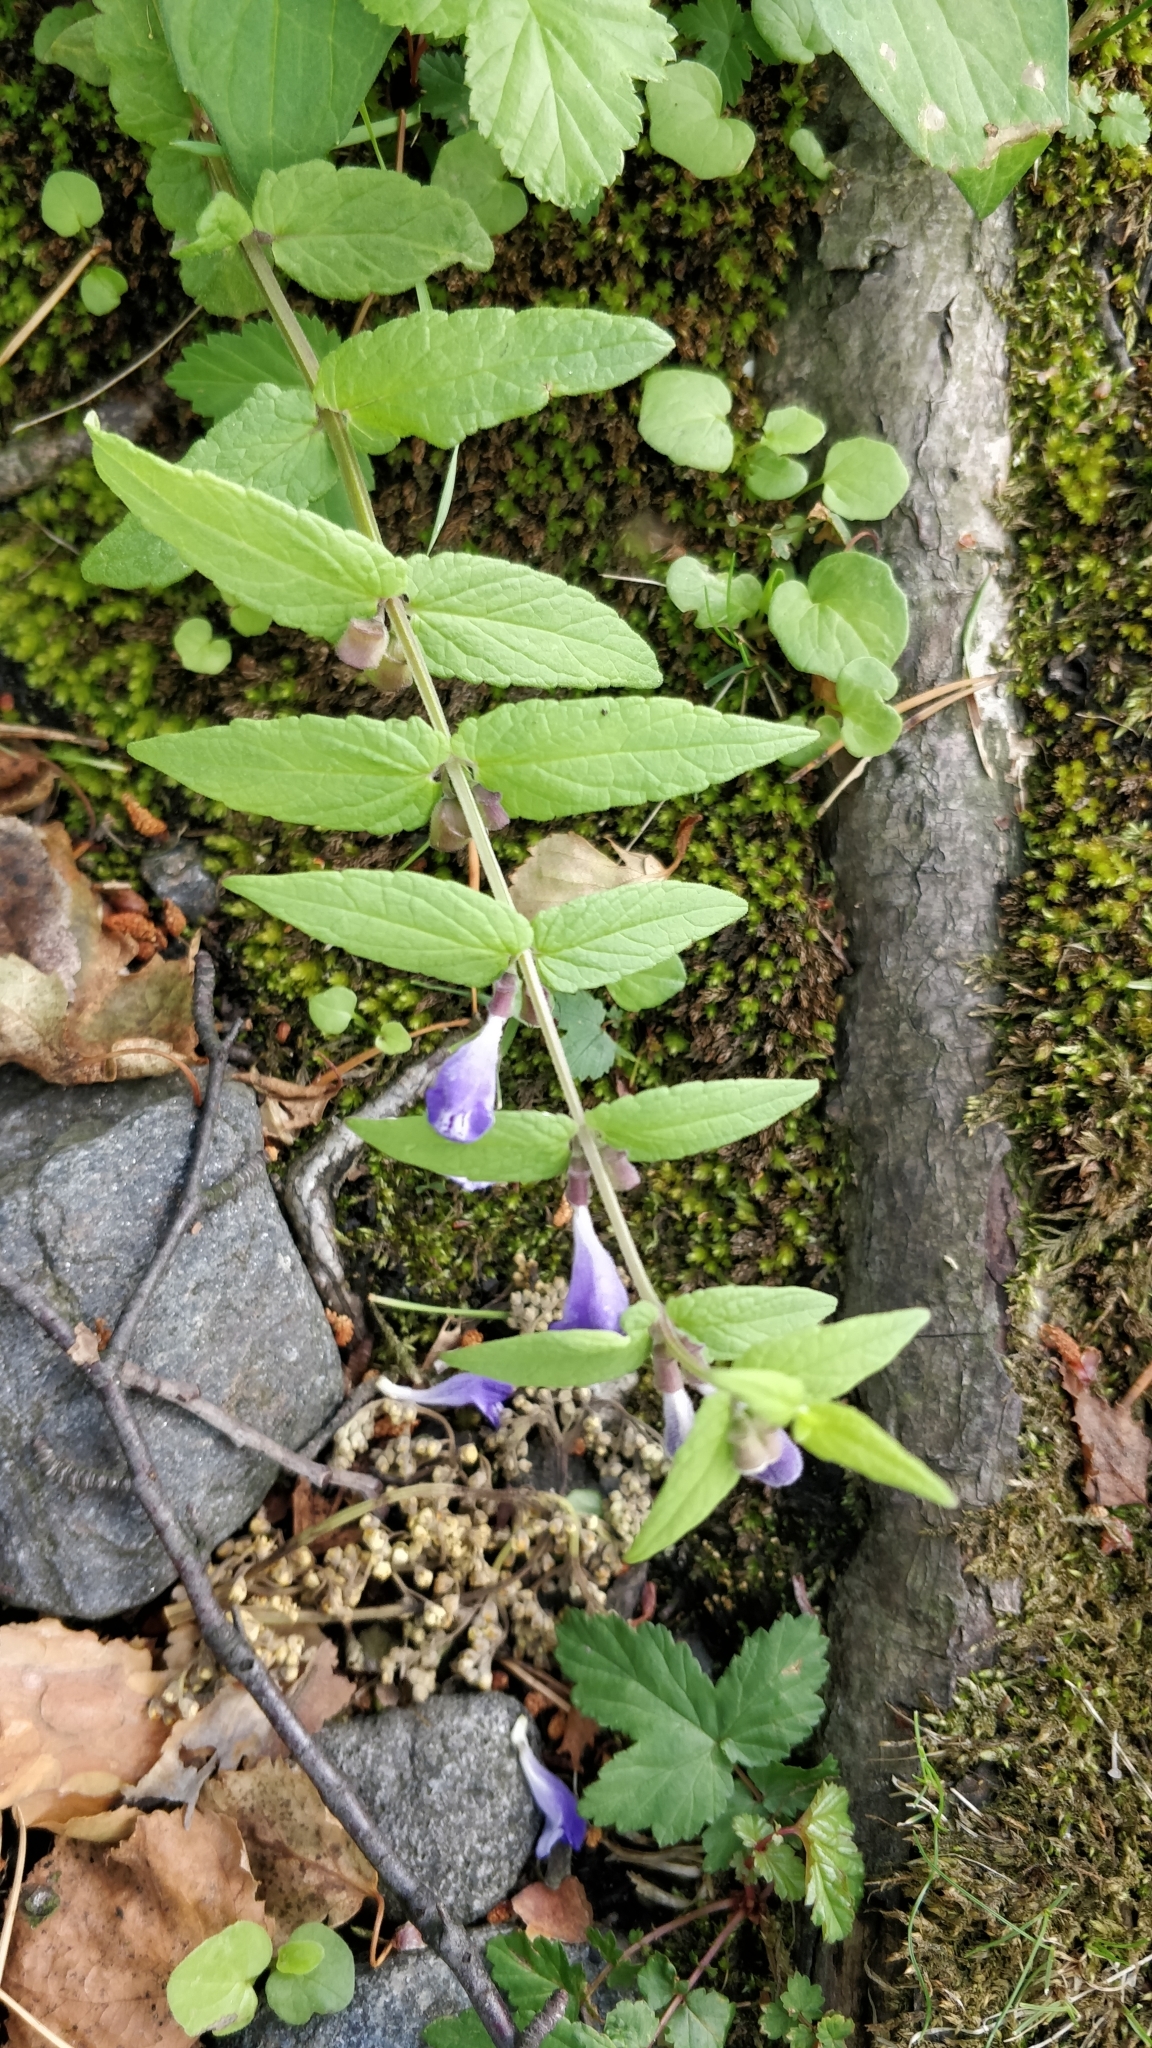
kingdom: Plantae
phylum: Tracheophyta
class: Magnoliopsida
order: Lamiales
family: Lamiaceae
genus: Scutellaria
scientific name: Scutellaria galericulata
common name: Skullcap
